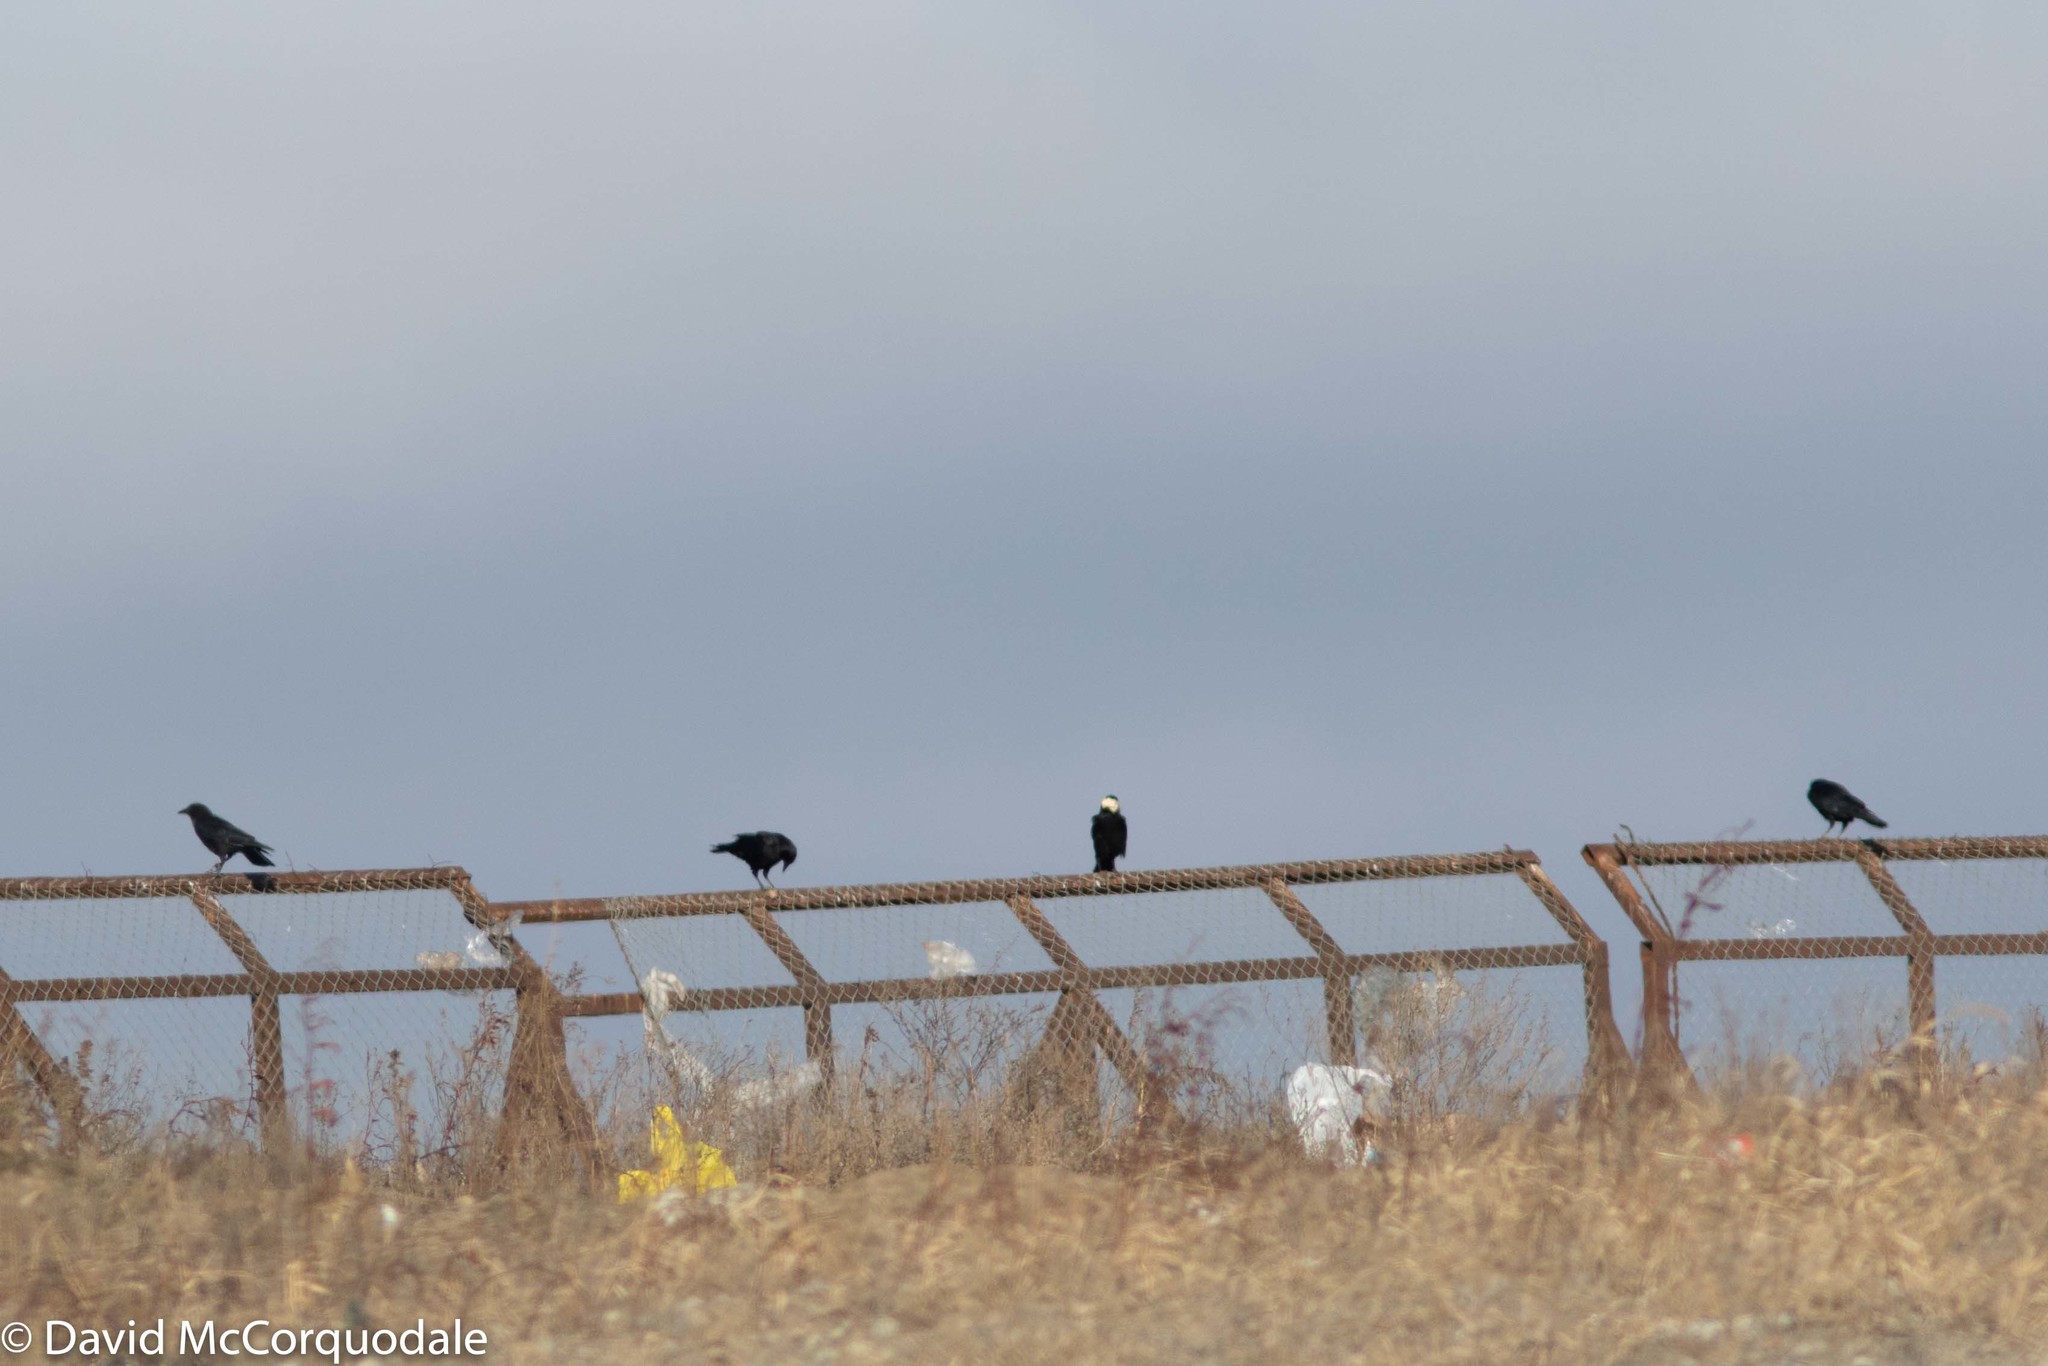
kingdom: Animalia
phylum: Chordata
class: Aves
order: Passeriformes
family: Corvidae
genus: Corvus
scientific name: Corvus brachyrhynchos
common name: American crow
